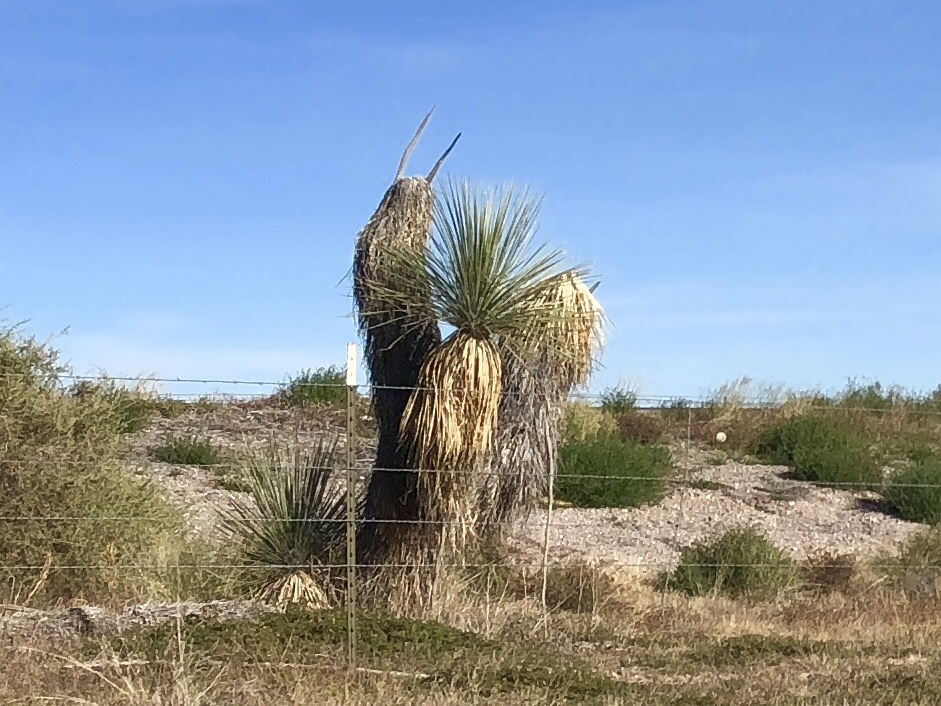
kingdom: Plantae
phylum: Tracheophyta
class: Liliopsida
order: Asparagales
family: Asparagaceae
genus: Yucca
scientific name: Yucca elata
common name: Palmella
